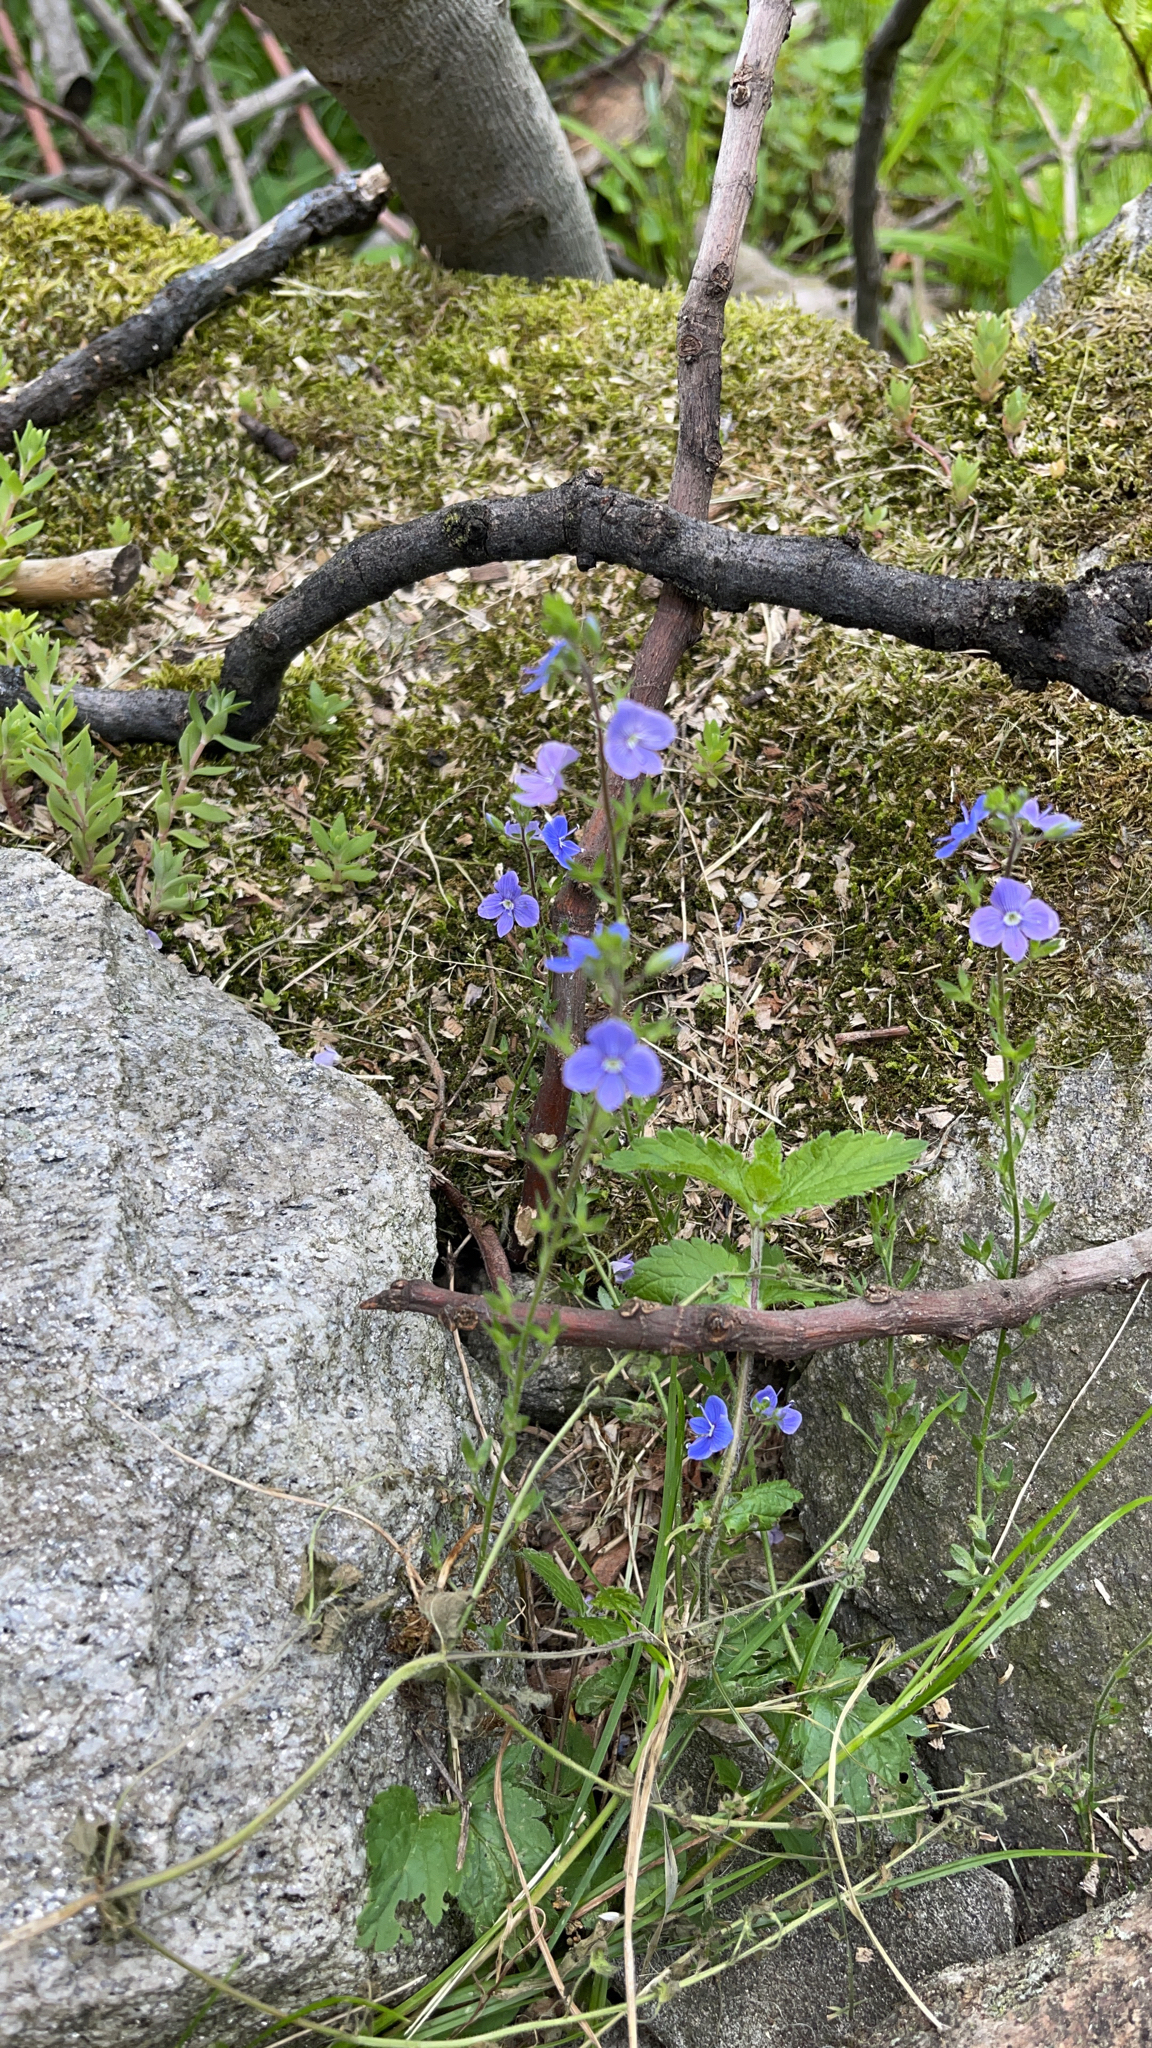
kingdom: Plantae
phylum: Tracheophyta
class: Magnoliopsida
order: Lamiales
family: Plantaginaceae
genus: Veronica
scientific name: Veronica chamaedrys
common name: Germander speedwell
